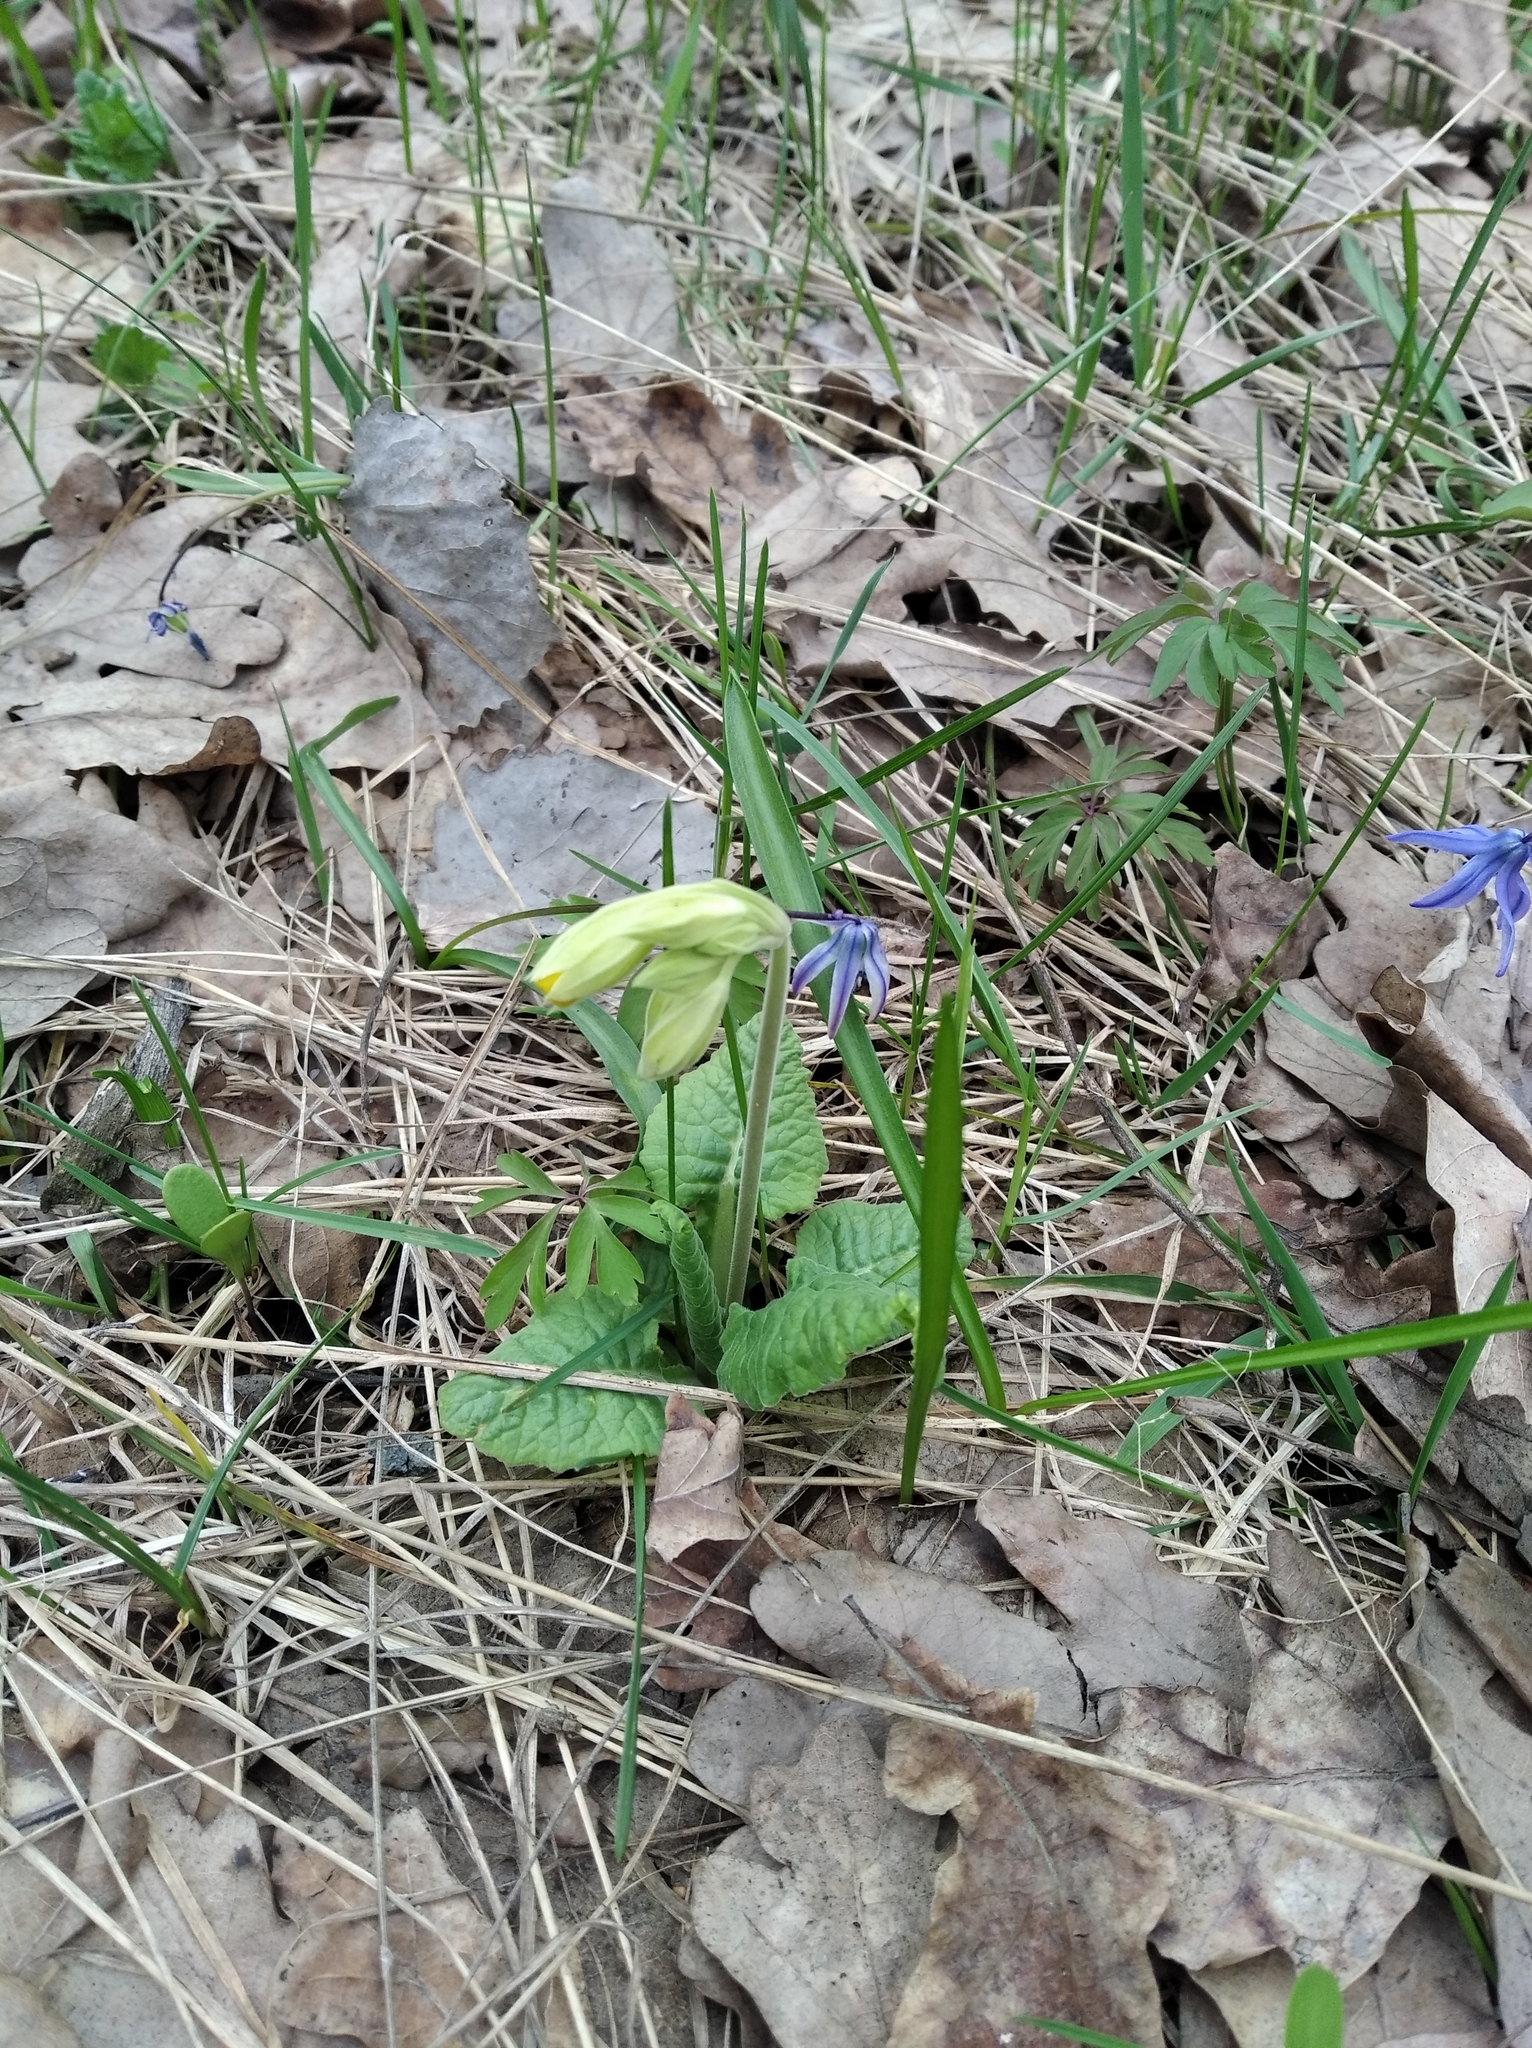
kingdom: Plantae
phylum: Tracheophyta
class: Magnoliopsida
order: Ericales
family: Primulaceae
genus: Primula
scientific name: Primula veris
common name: Cowslip
